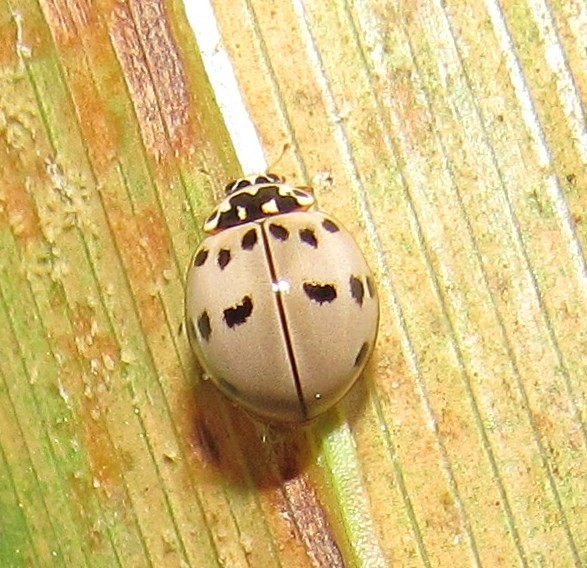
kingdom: Animalia
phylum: Arthropoda
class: Insecta
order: Coleoptera
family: Coccinellidae
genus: Olla
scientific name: Olla v-nigrum
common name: Ashy gray lady beetle
